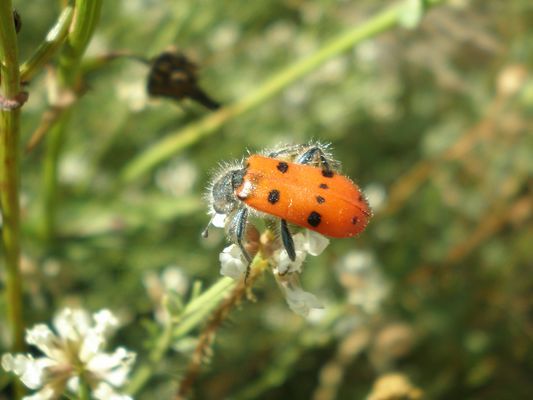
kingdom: Animalia
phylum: Arthropoda
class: Insecta
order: Coleoptera
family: Cleridae
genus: Trichodes
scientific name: Trichodes octopunctatus
